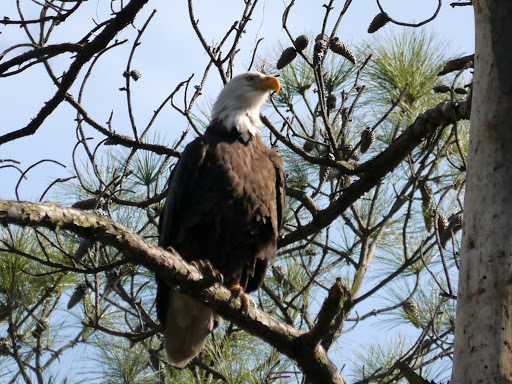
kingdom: Animalia
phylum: Chordata
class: Aves
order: Accipitriformes
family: Accipitridae
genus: Haliaeetus
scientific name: Haliaeetus leucocephalus
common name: Bald eagle
